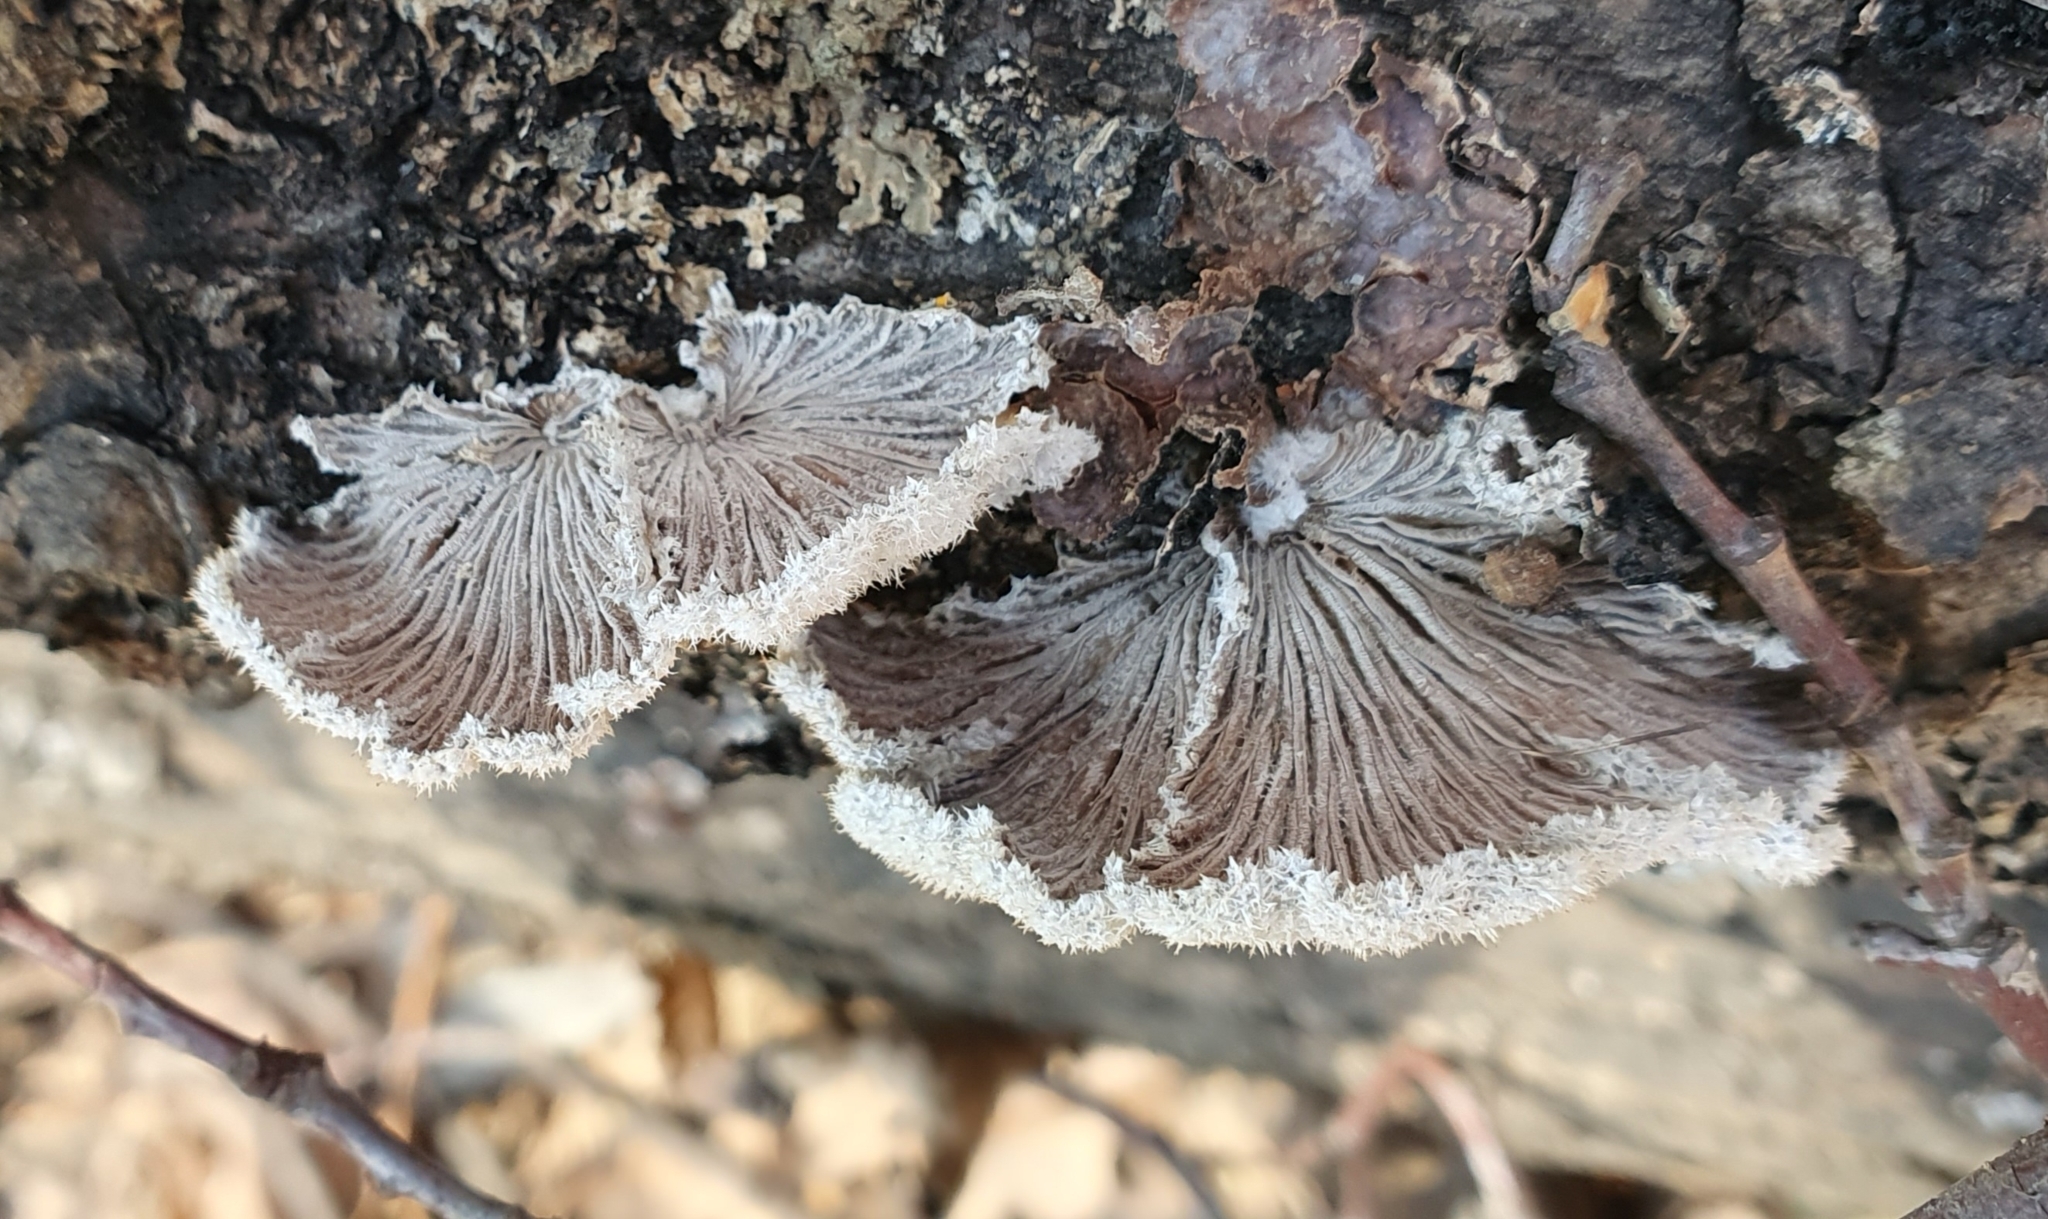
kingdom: Fungi
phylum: Basidiomycota
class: Agaricomycetes
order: Agaricales
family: Schizophyllaceae
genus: Schizophyllum
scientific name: Schizophyllum commune
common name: Common porecrust
